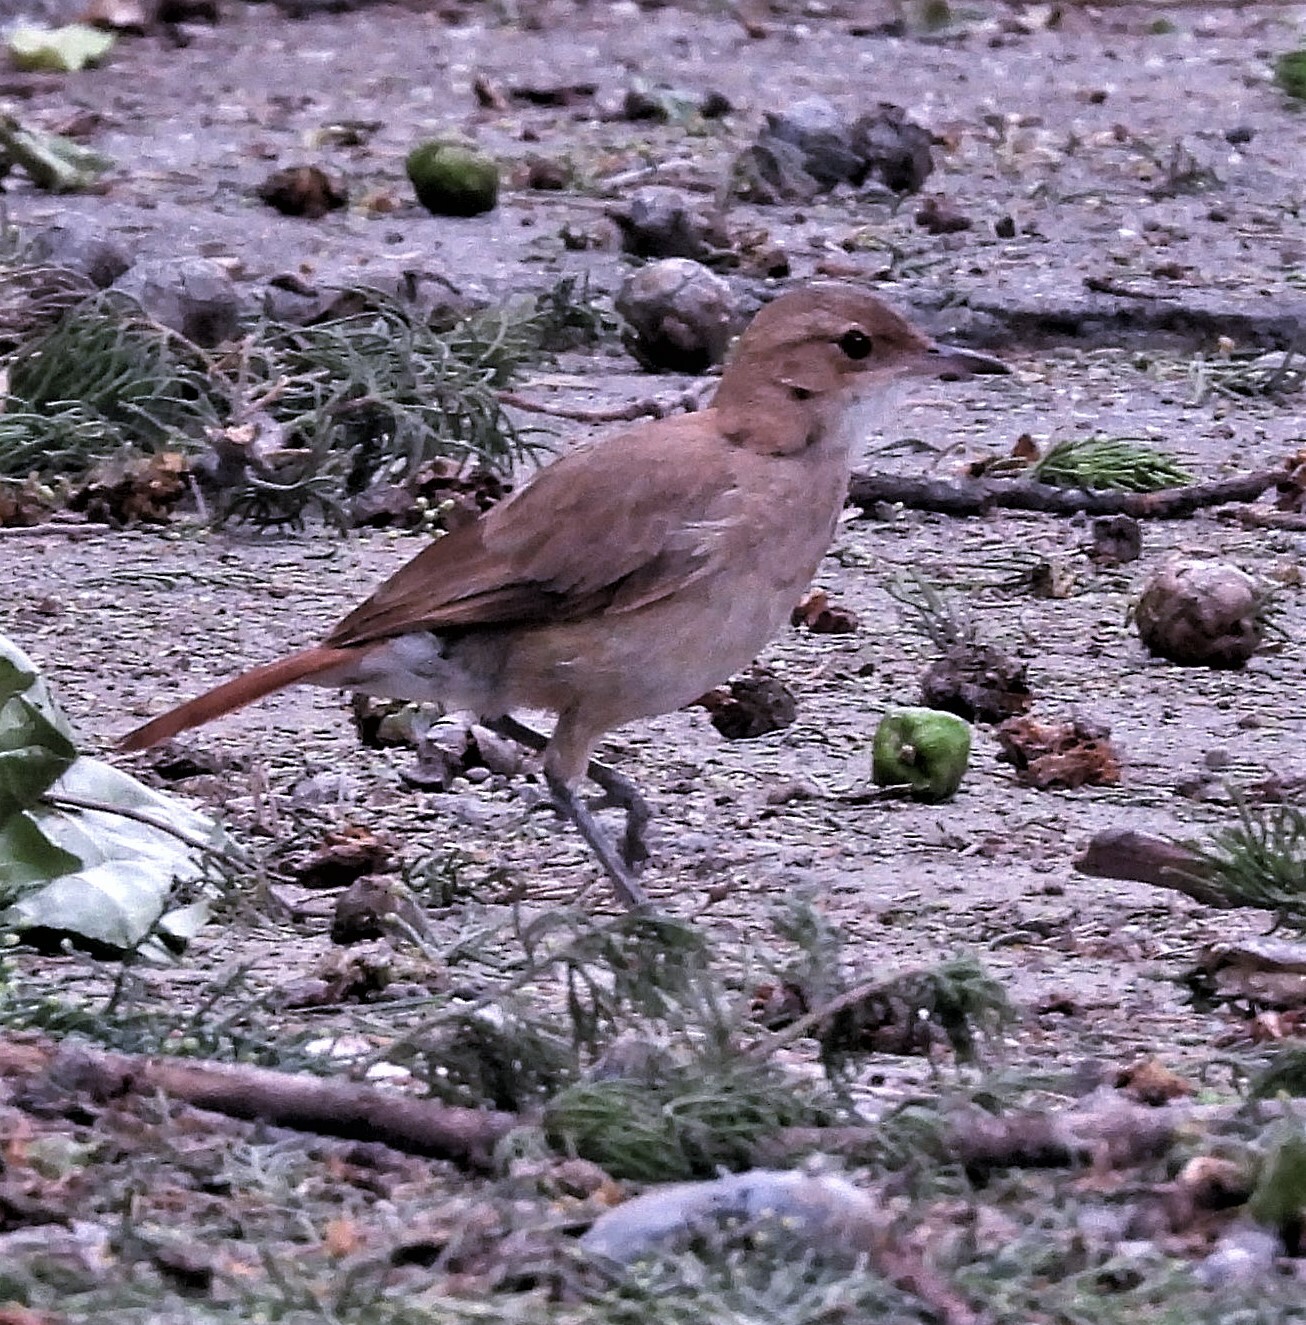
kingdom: Animalia
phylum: Chordata
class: Aves
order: Passeriformes
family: Furnariidae
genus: Furnarius
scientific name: Furnarius rufus
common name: Rufous hornero
